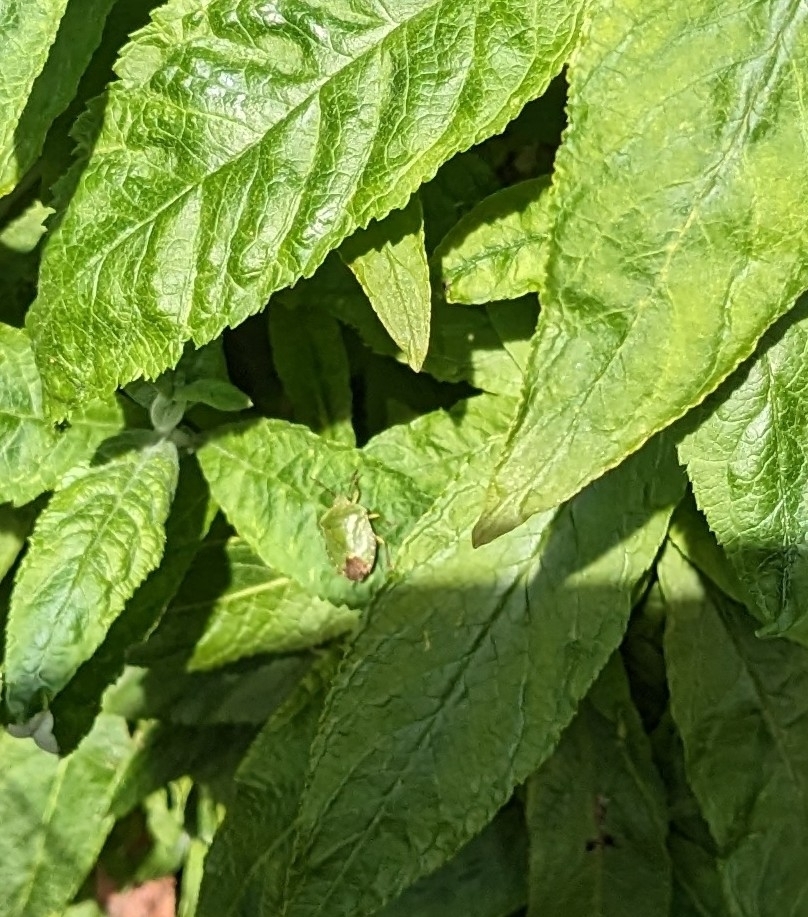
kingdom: Animalia
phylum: Arthropoda
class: Insecta
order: Hemiptera
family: Pentatomidae
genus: Palomena
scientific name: Palomena prasina
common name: Green shieldbug
